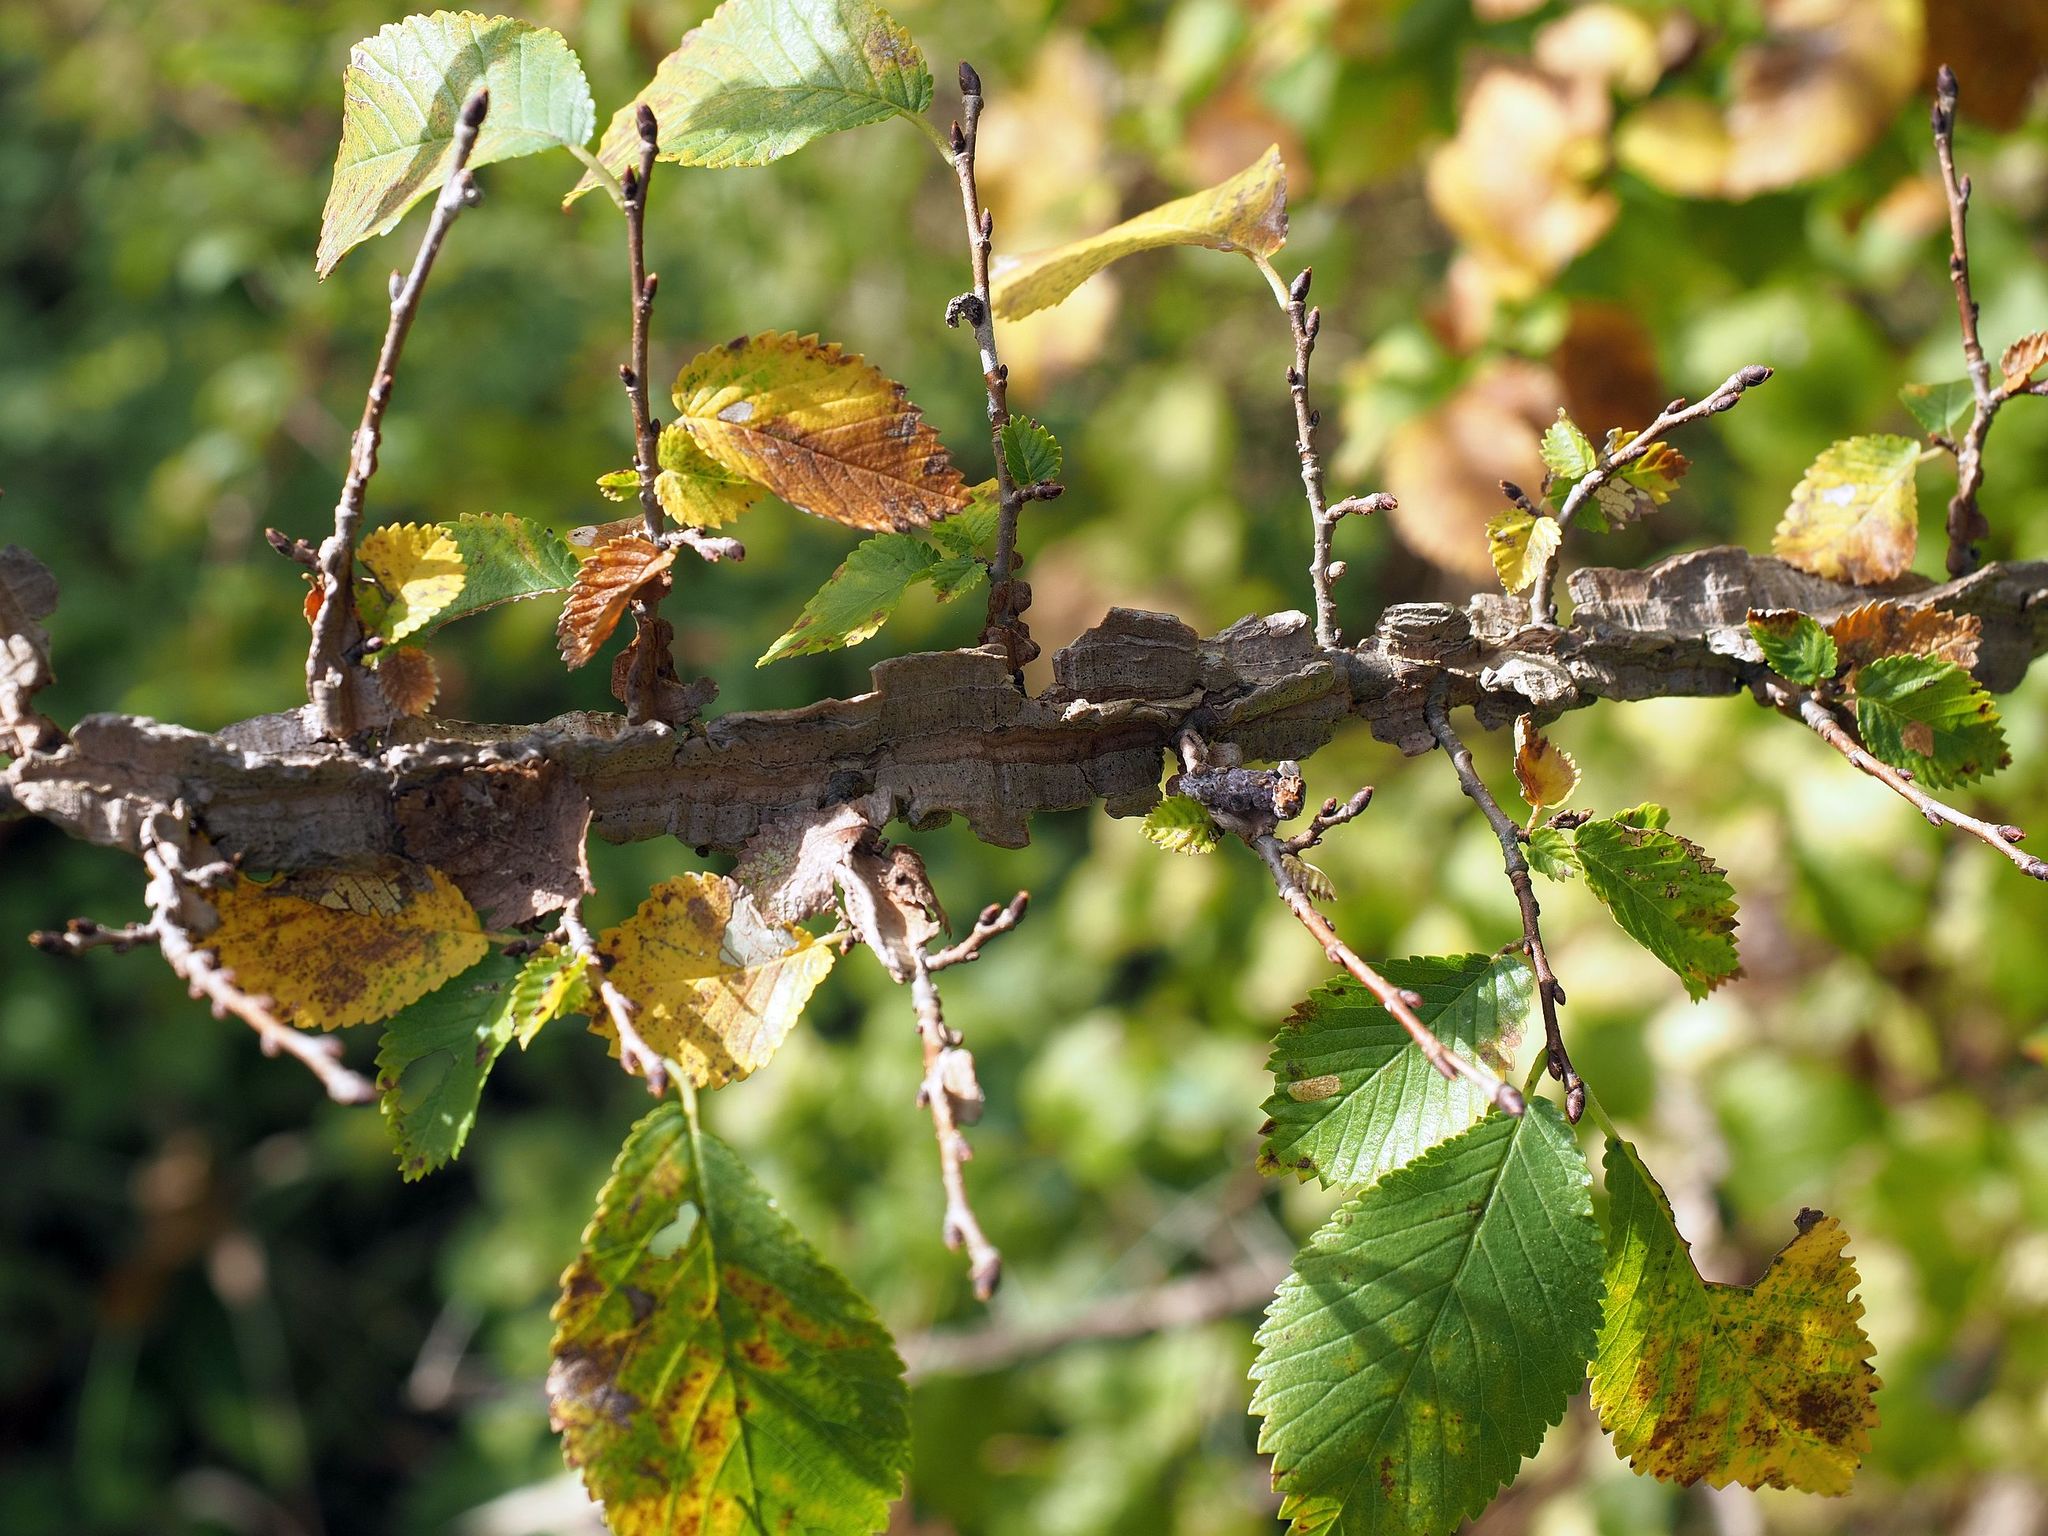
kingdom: Plantae
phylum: Tracheophyta
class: Magnoliopsida
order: Rosales
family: Ulmaceae
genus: Ulmus
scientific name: Ulmus minor
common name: Small-leaved elm
